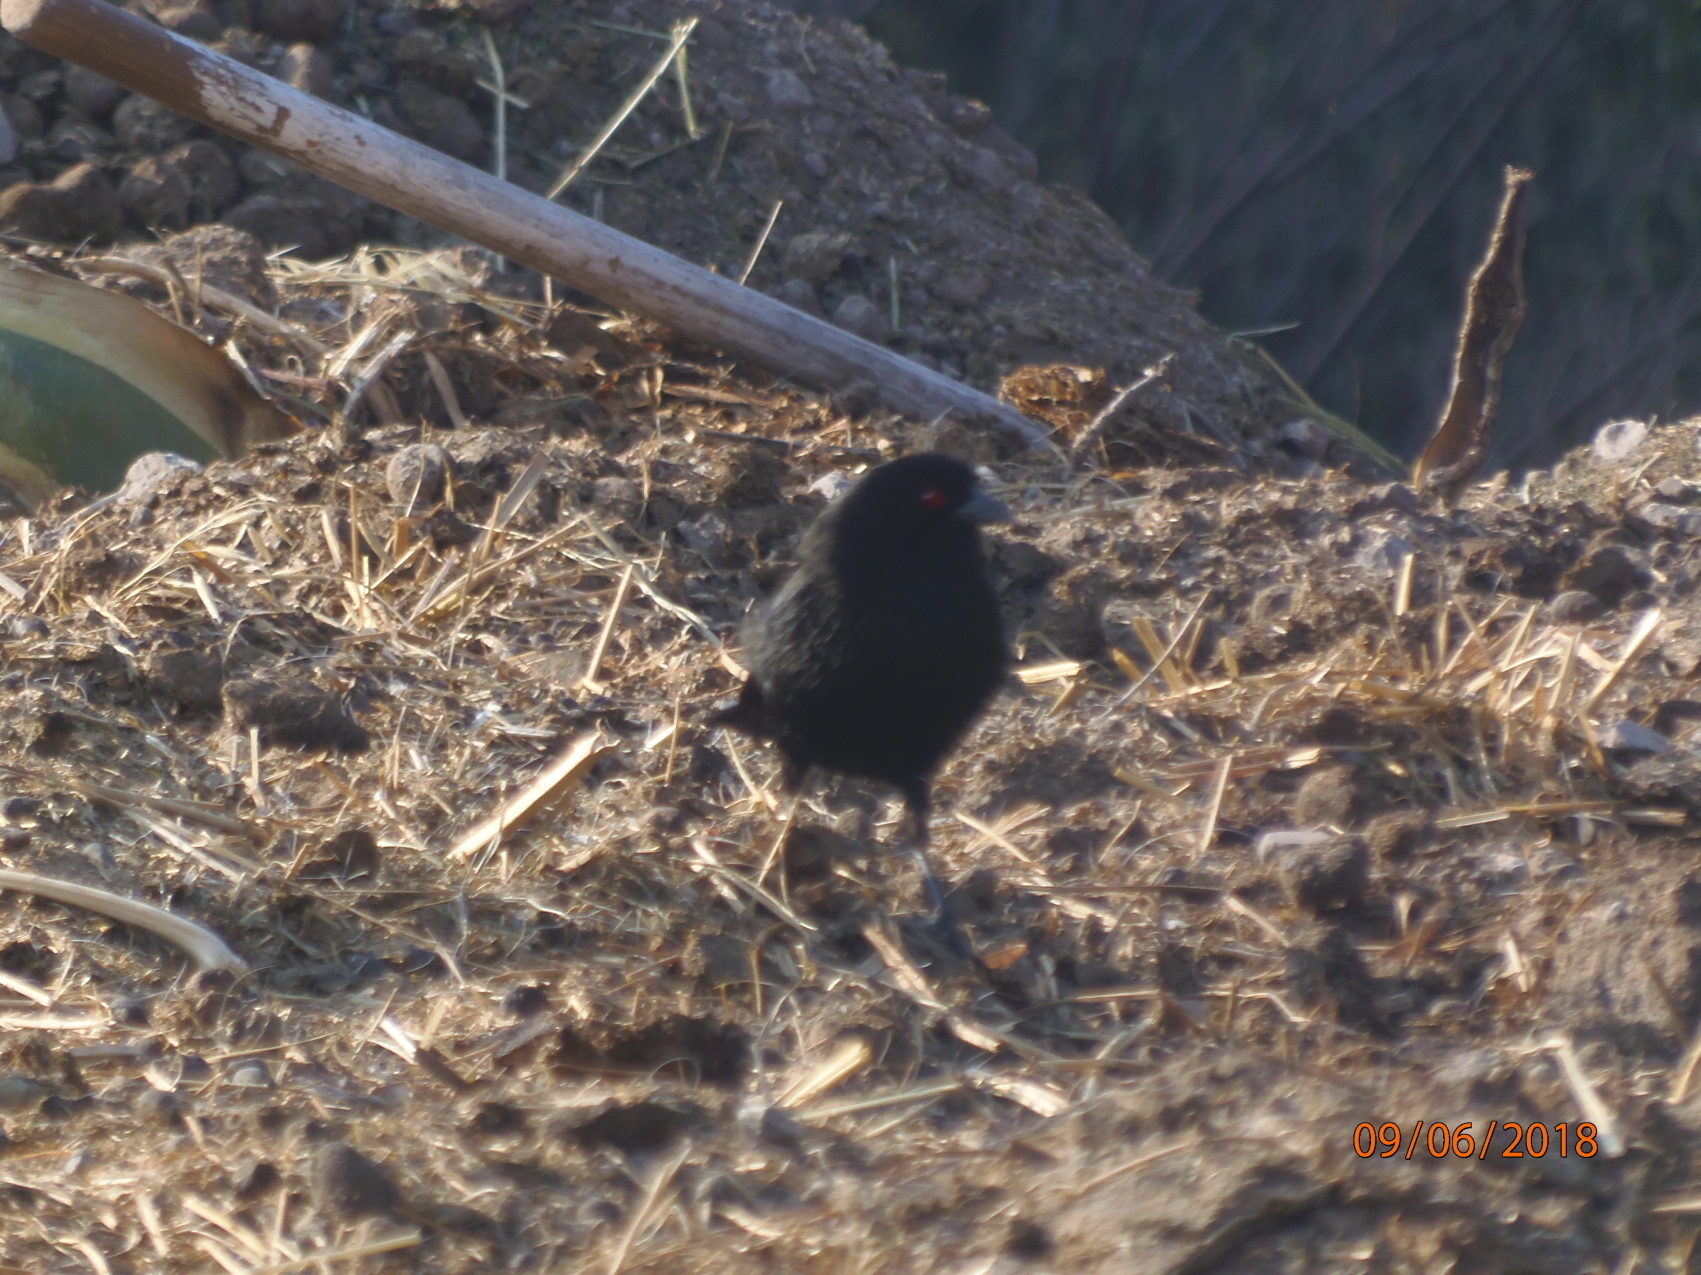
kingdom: Animalia
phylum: Chordata
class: Aves
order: Passeriformes
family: Icteridae
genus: Molothrus
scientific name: Molothrus aeneus
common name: Bronzed cowbird
